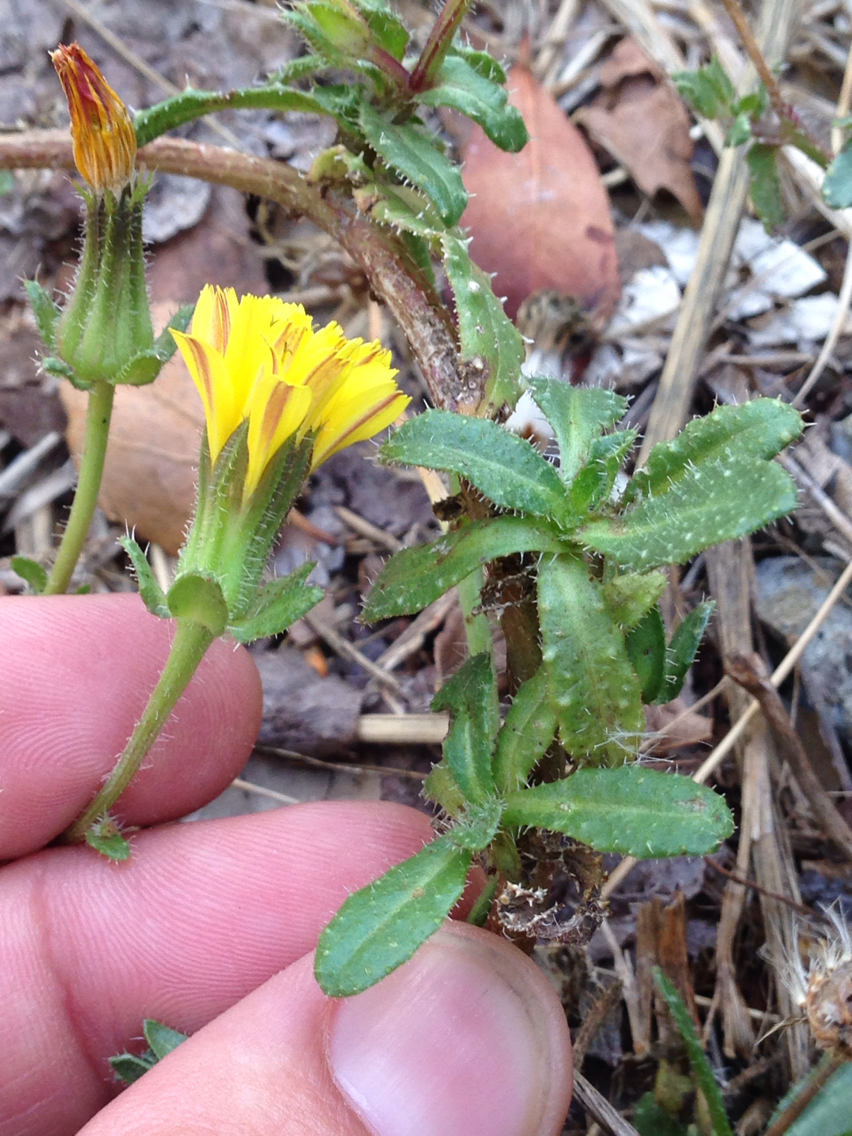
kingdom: Plantae
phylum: Tracheophyta
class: Magnoliopsida
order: Asterales
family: Asteraceae
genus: Helminthotheca
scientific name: Helminthotheca echioides
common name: Ox-tongue
